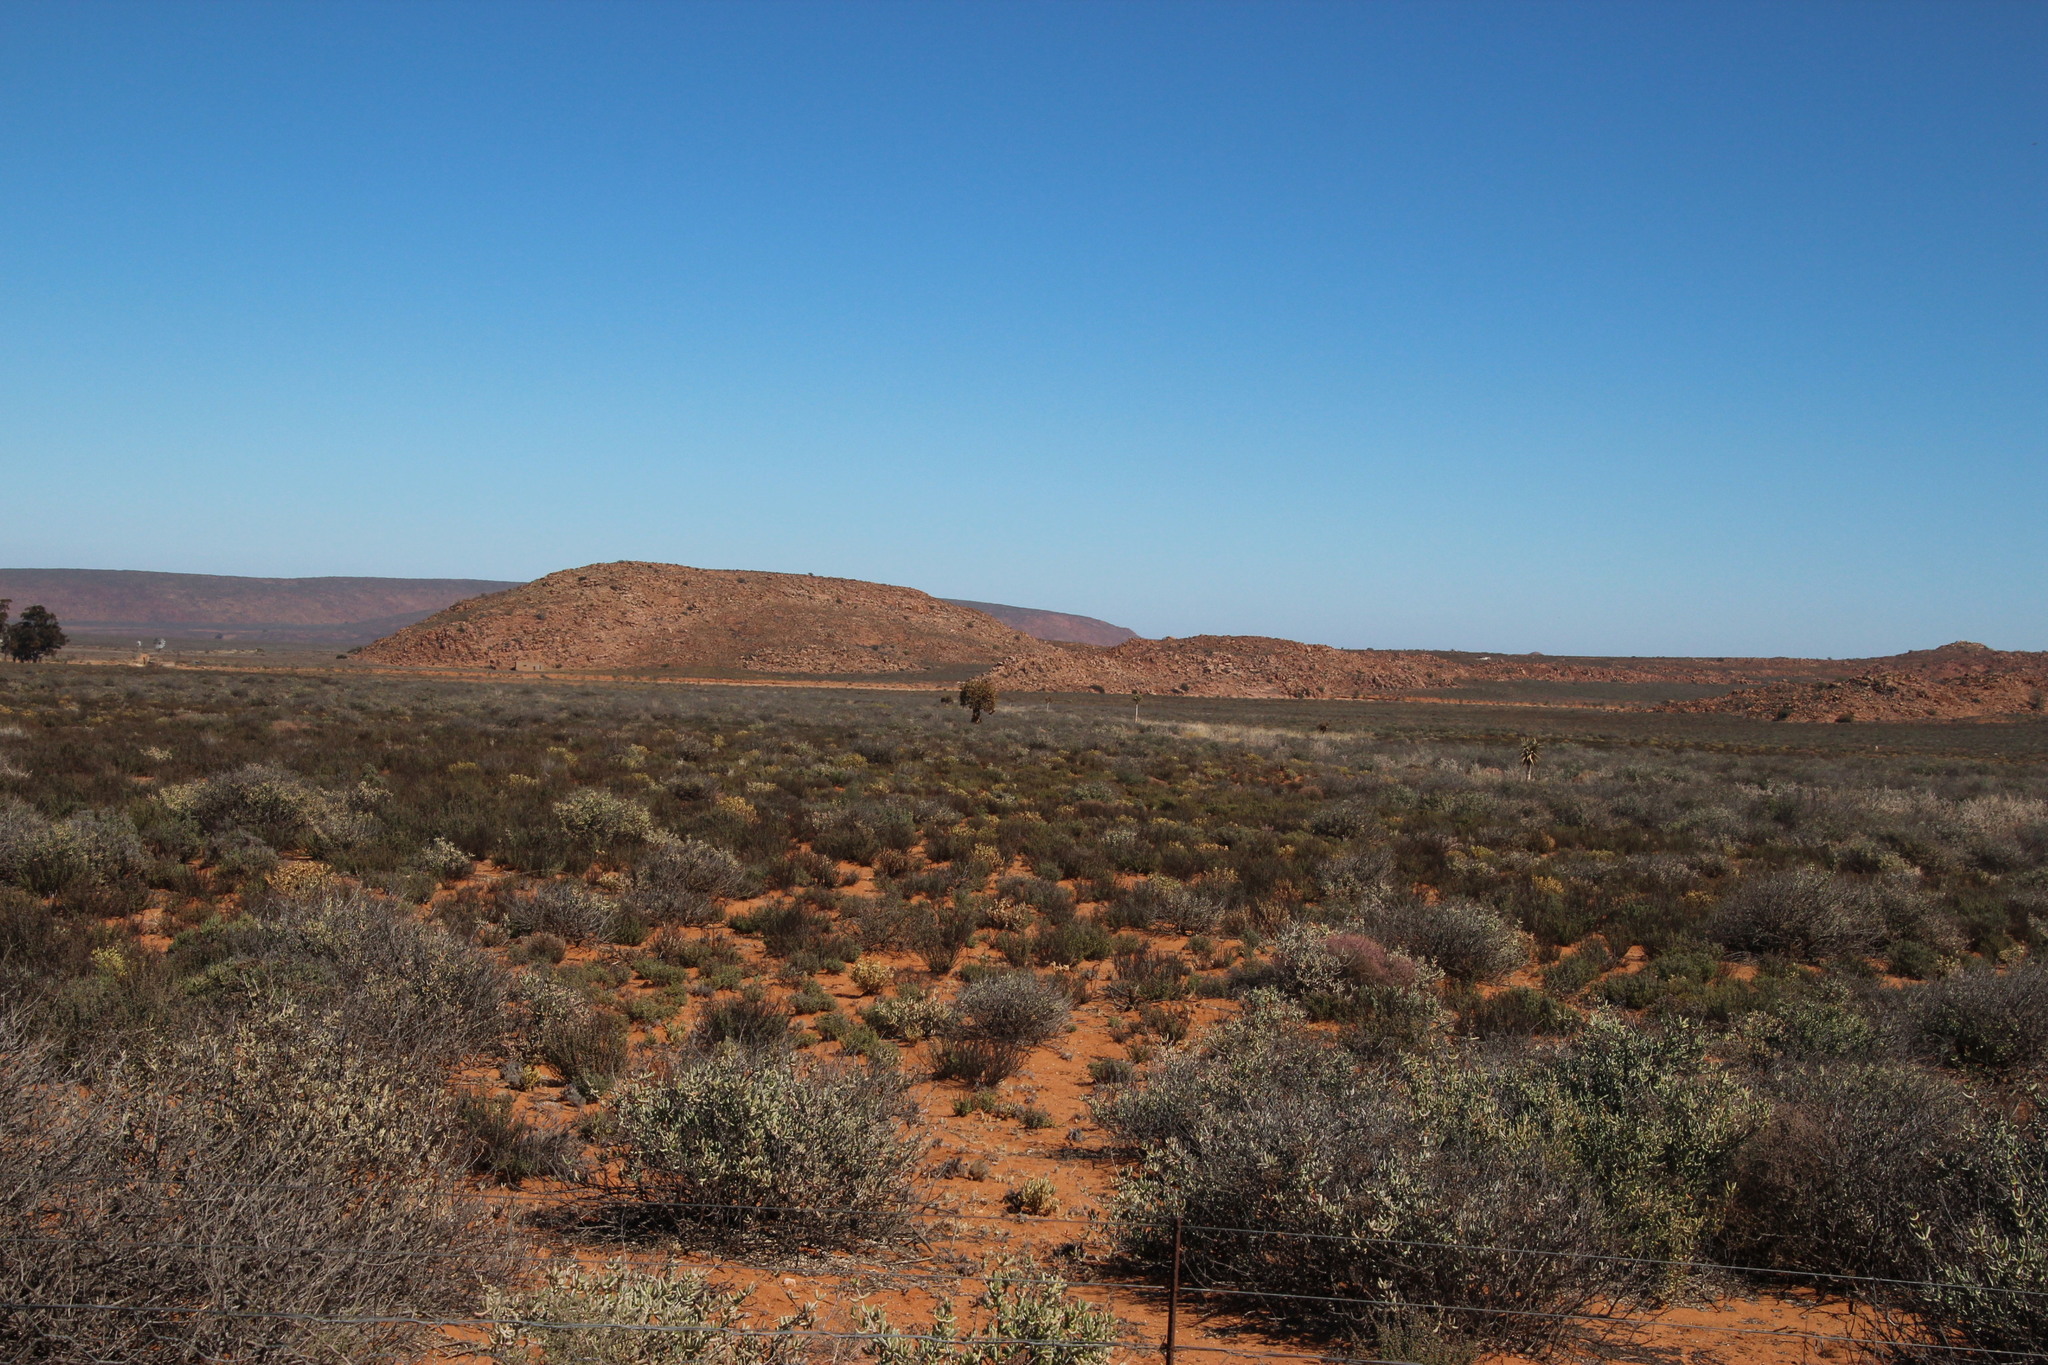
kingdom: Plantae
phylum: Tracheophyta
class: Liliopsida
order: Asparagales
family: Asphodelaceae
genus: Aloidendron
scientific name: Aloidendron dichotomum
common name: Quiver tree
